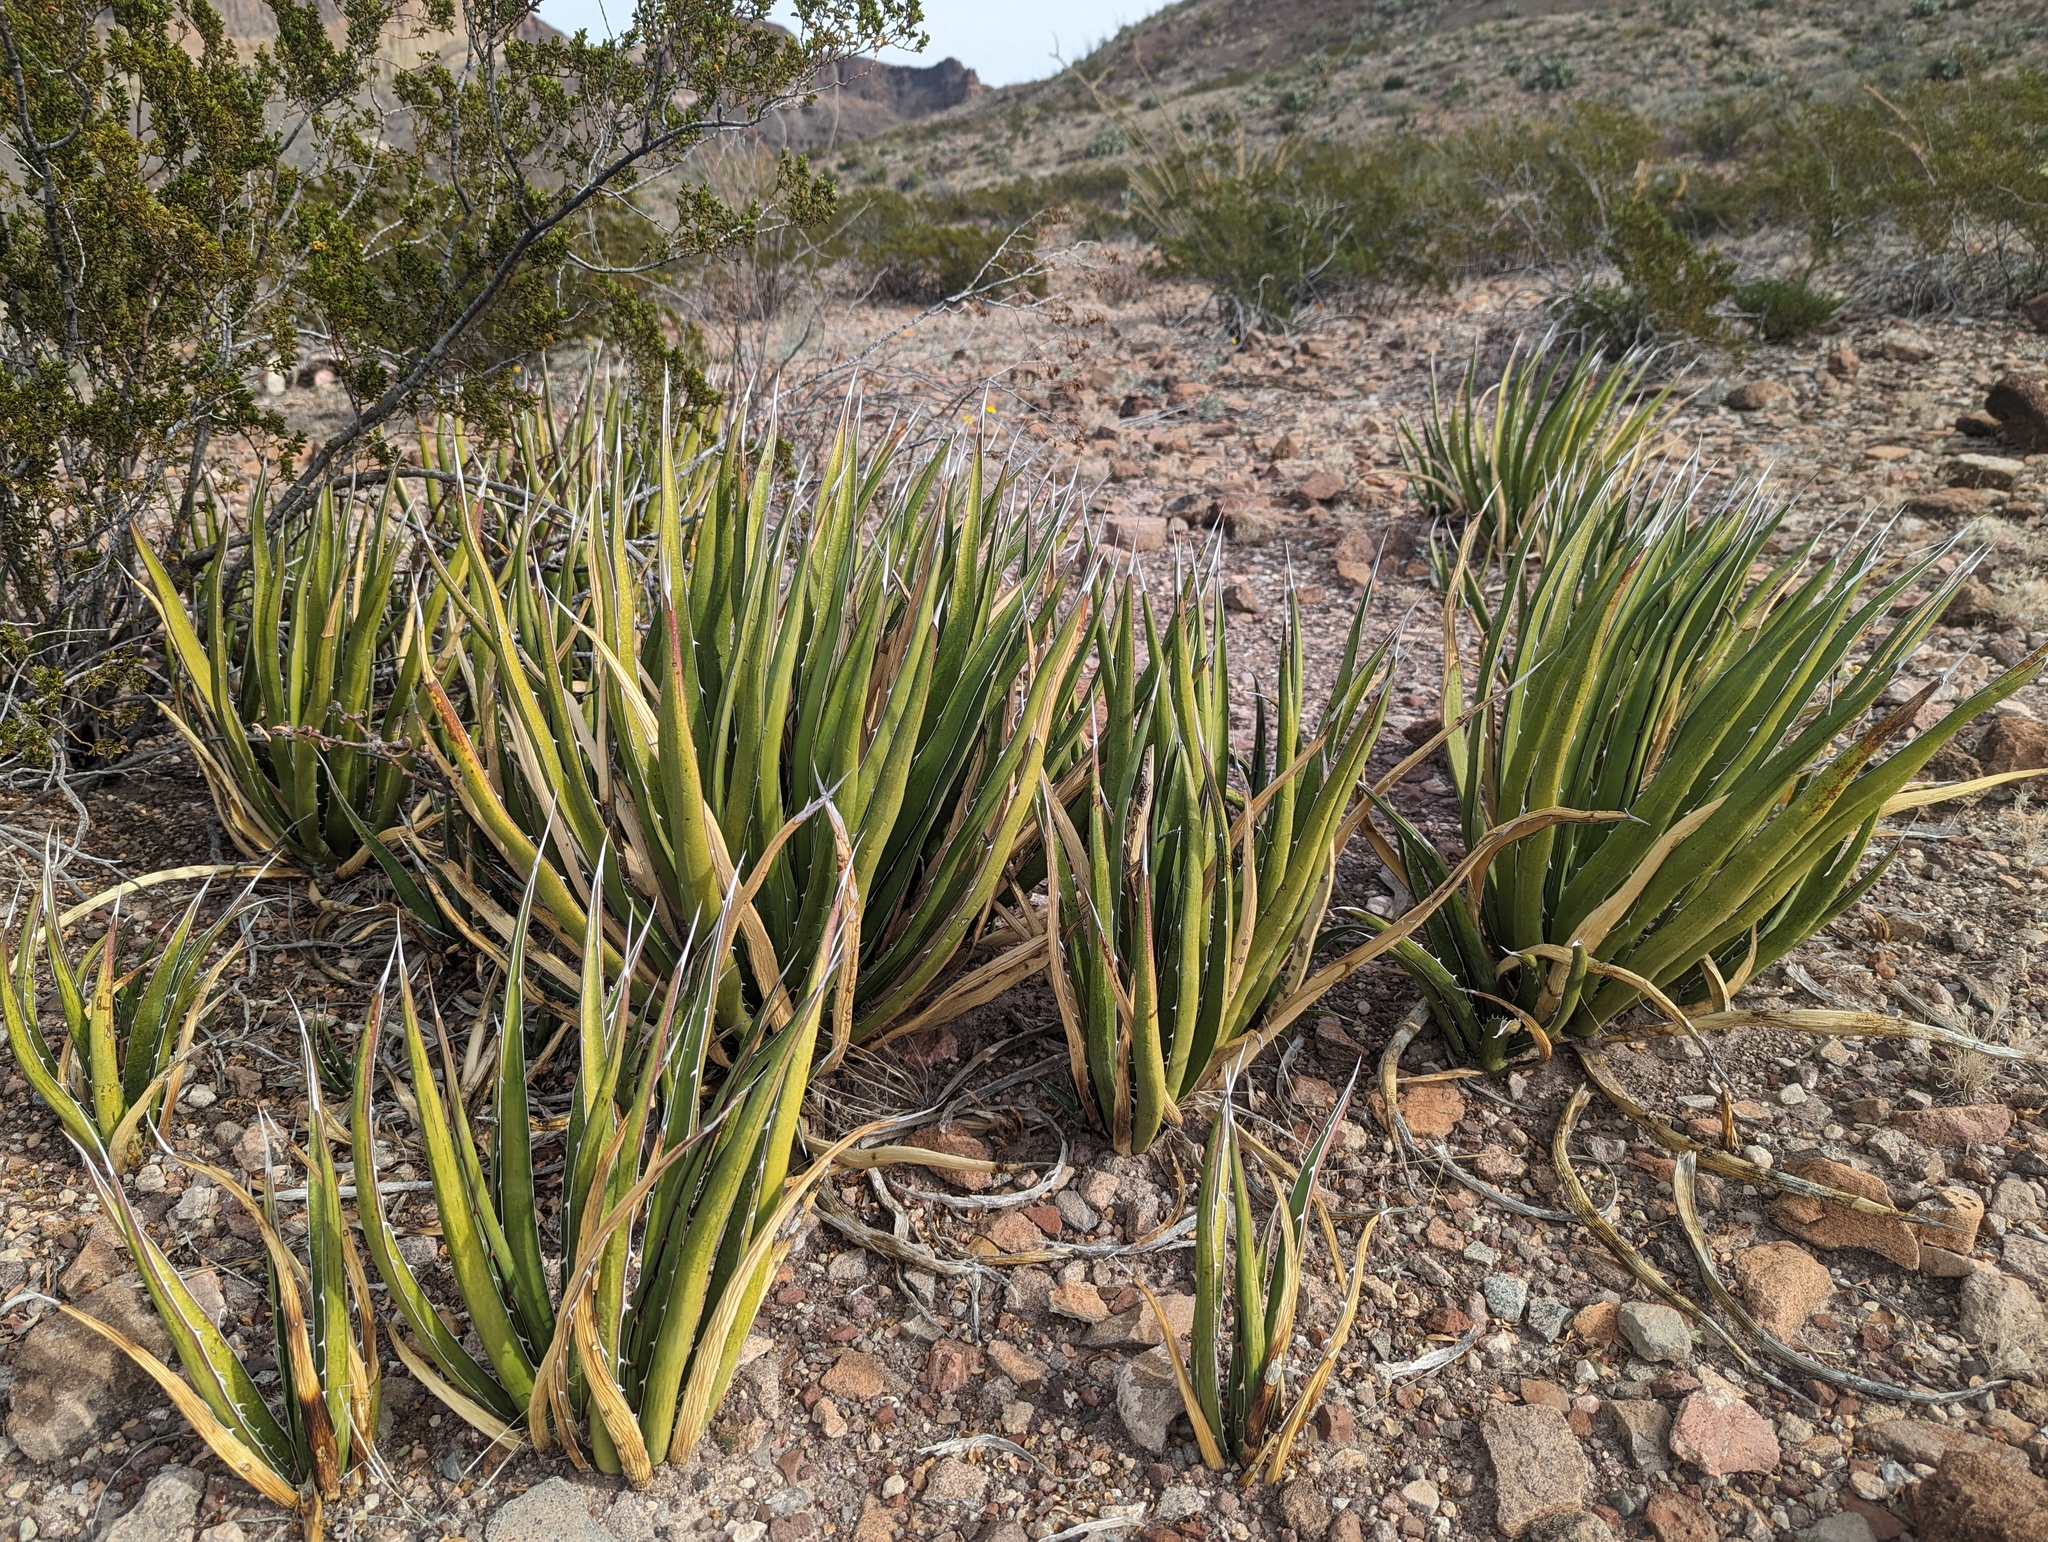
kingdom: Plantae
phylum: Tracheophyta
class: Liliopsida
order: Asparagales
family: Asparagaceae
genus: Agave
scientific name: Agave lechuguilla
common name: Lecheguilla agave
